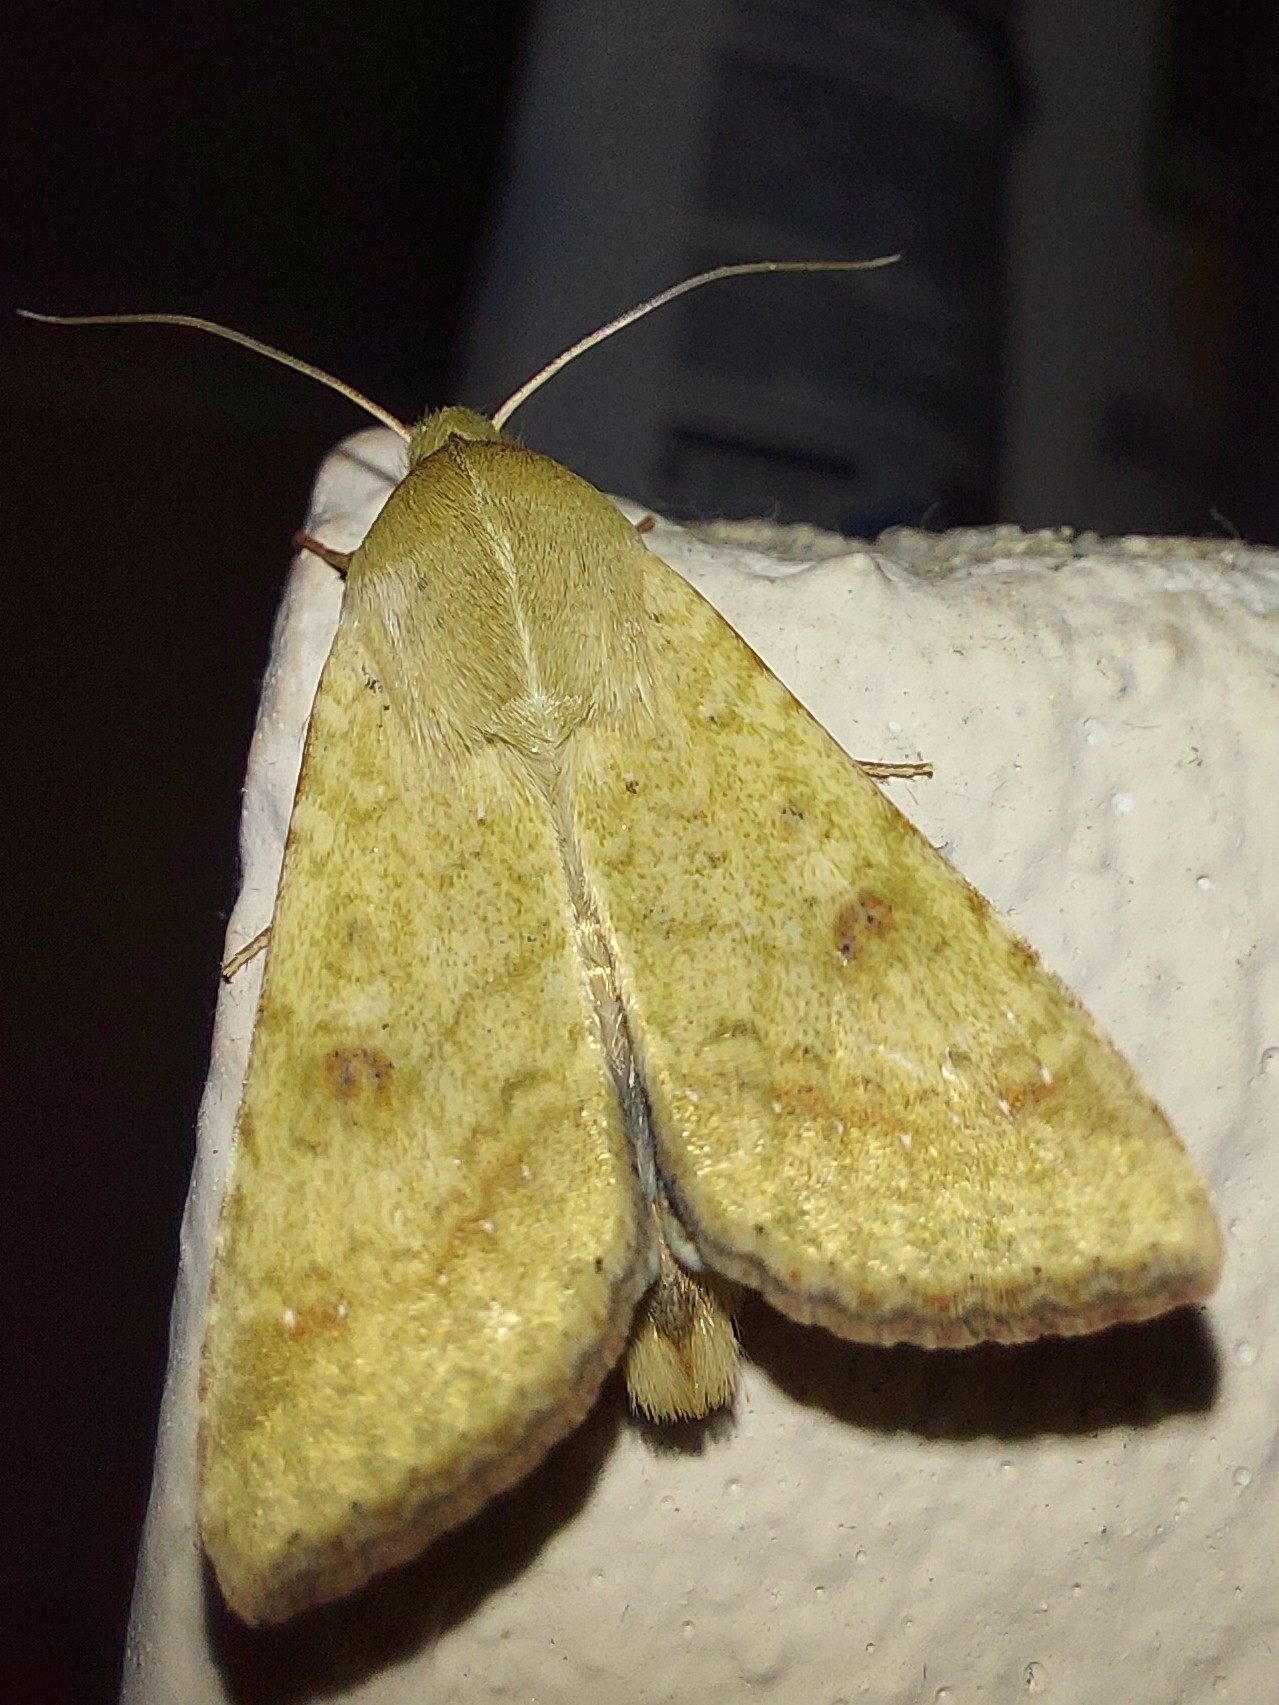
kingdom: Animalia
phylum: Arthropoda
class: Insecta
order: Lepidoptera
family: Noctuidae
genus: Helicoverpa
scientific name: Helicoverpa armigera
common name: Cotton bollworm
